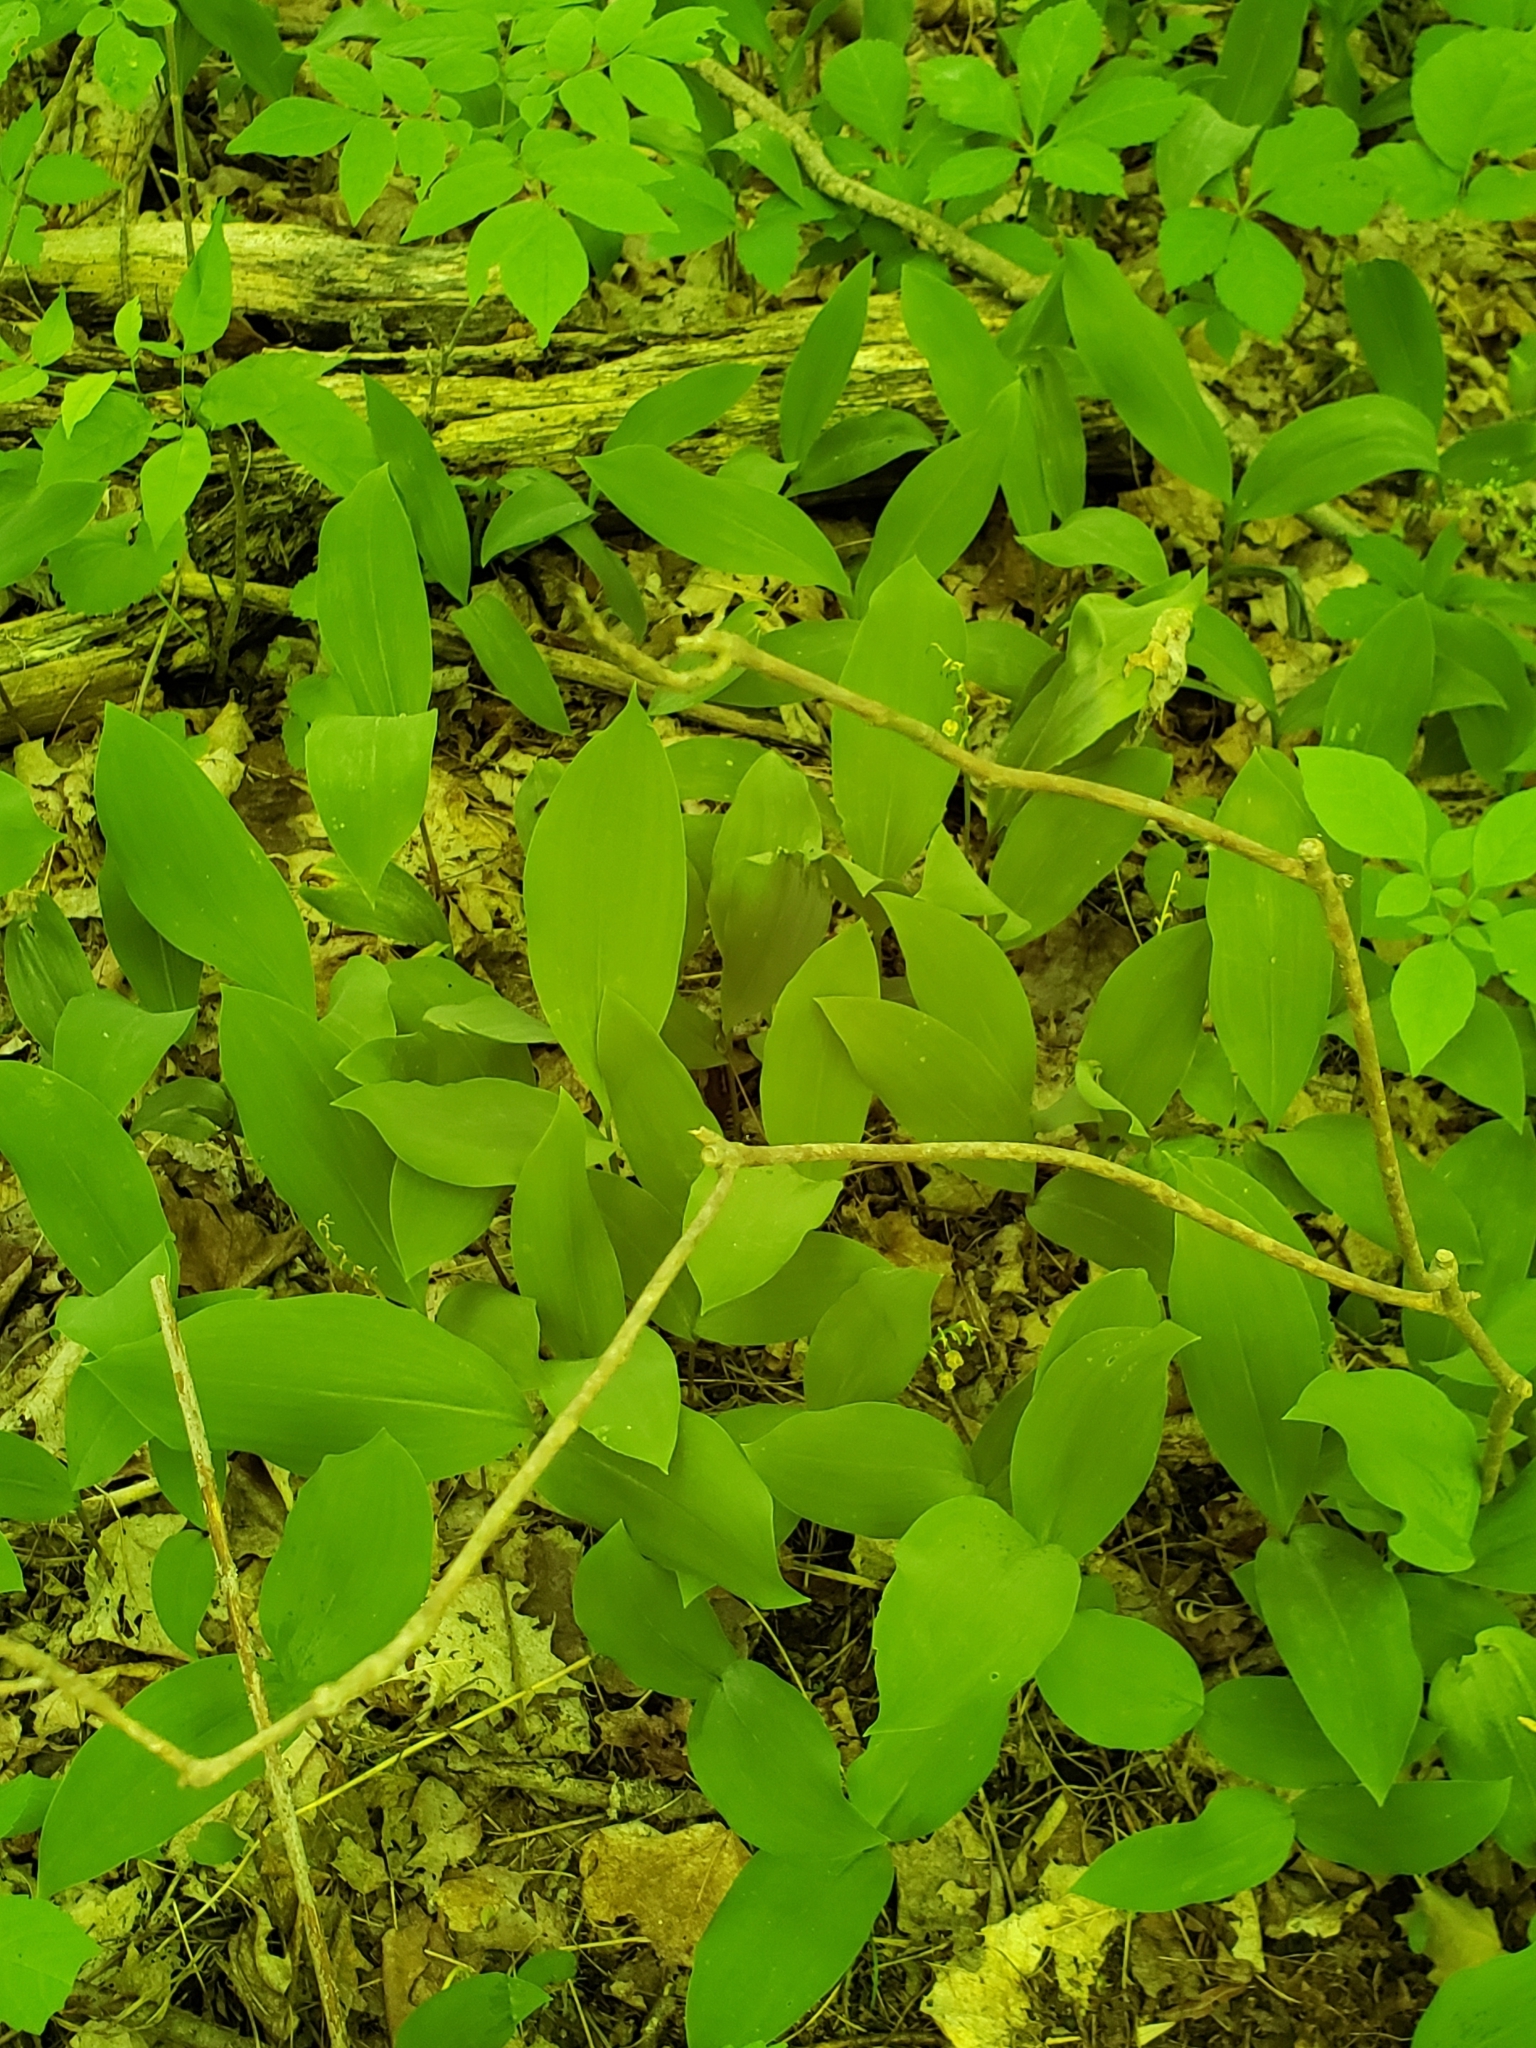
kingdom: Plantae
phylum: Tracheophyta
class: Liliopsida
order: Asparagales
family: Asparagaceae
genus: Convallaria
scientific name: Convallaria majalis
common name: Lily-of-the-valley
